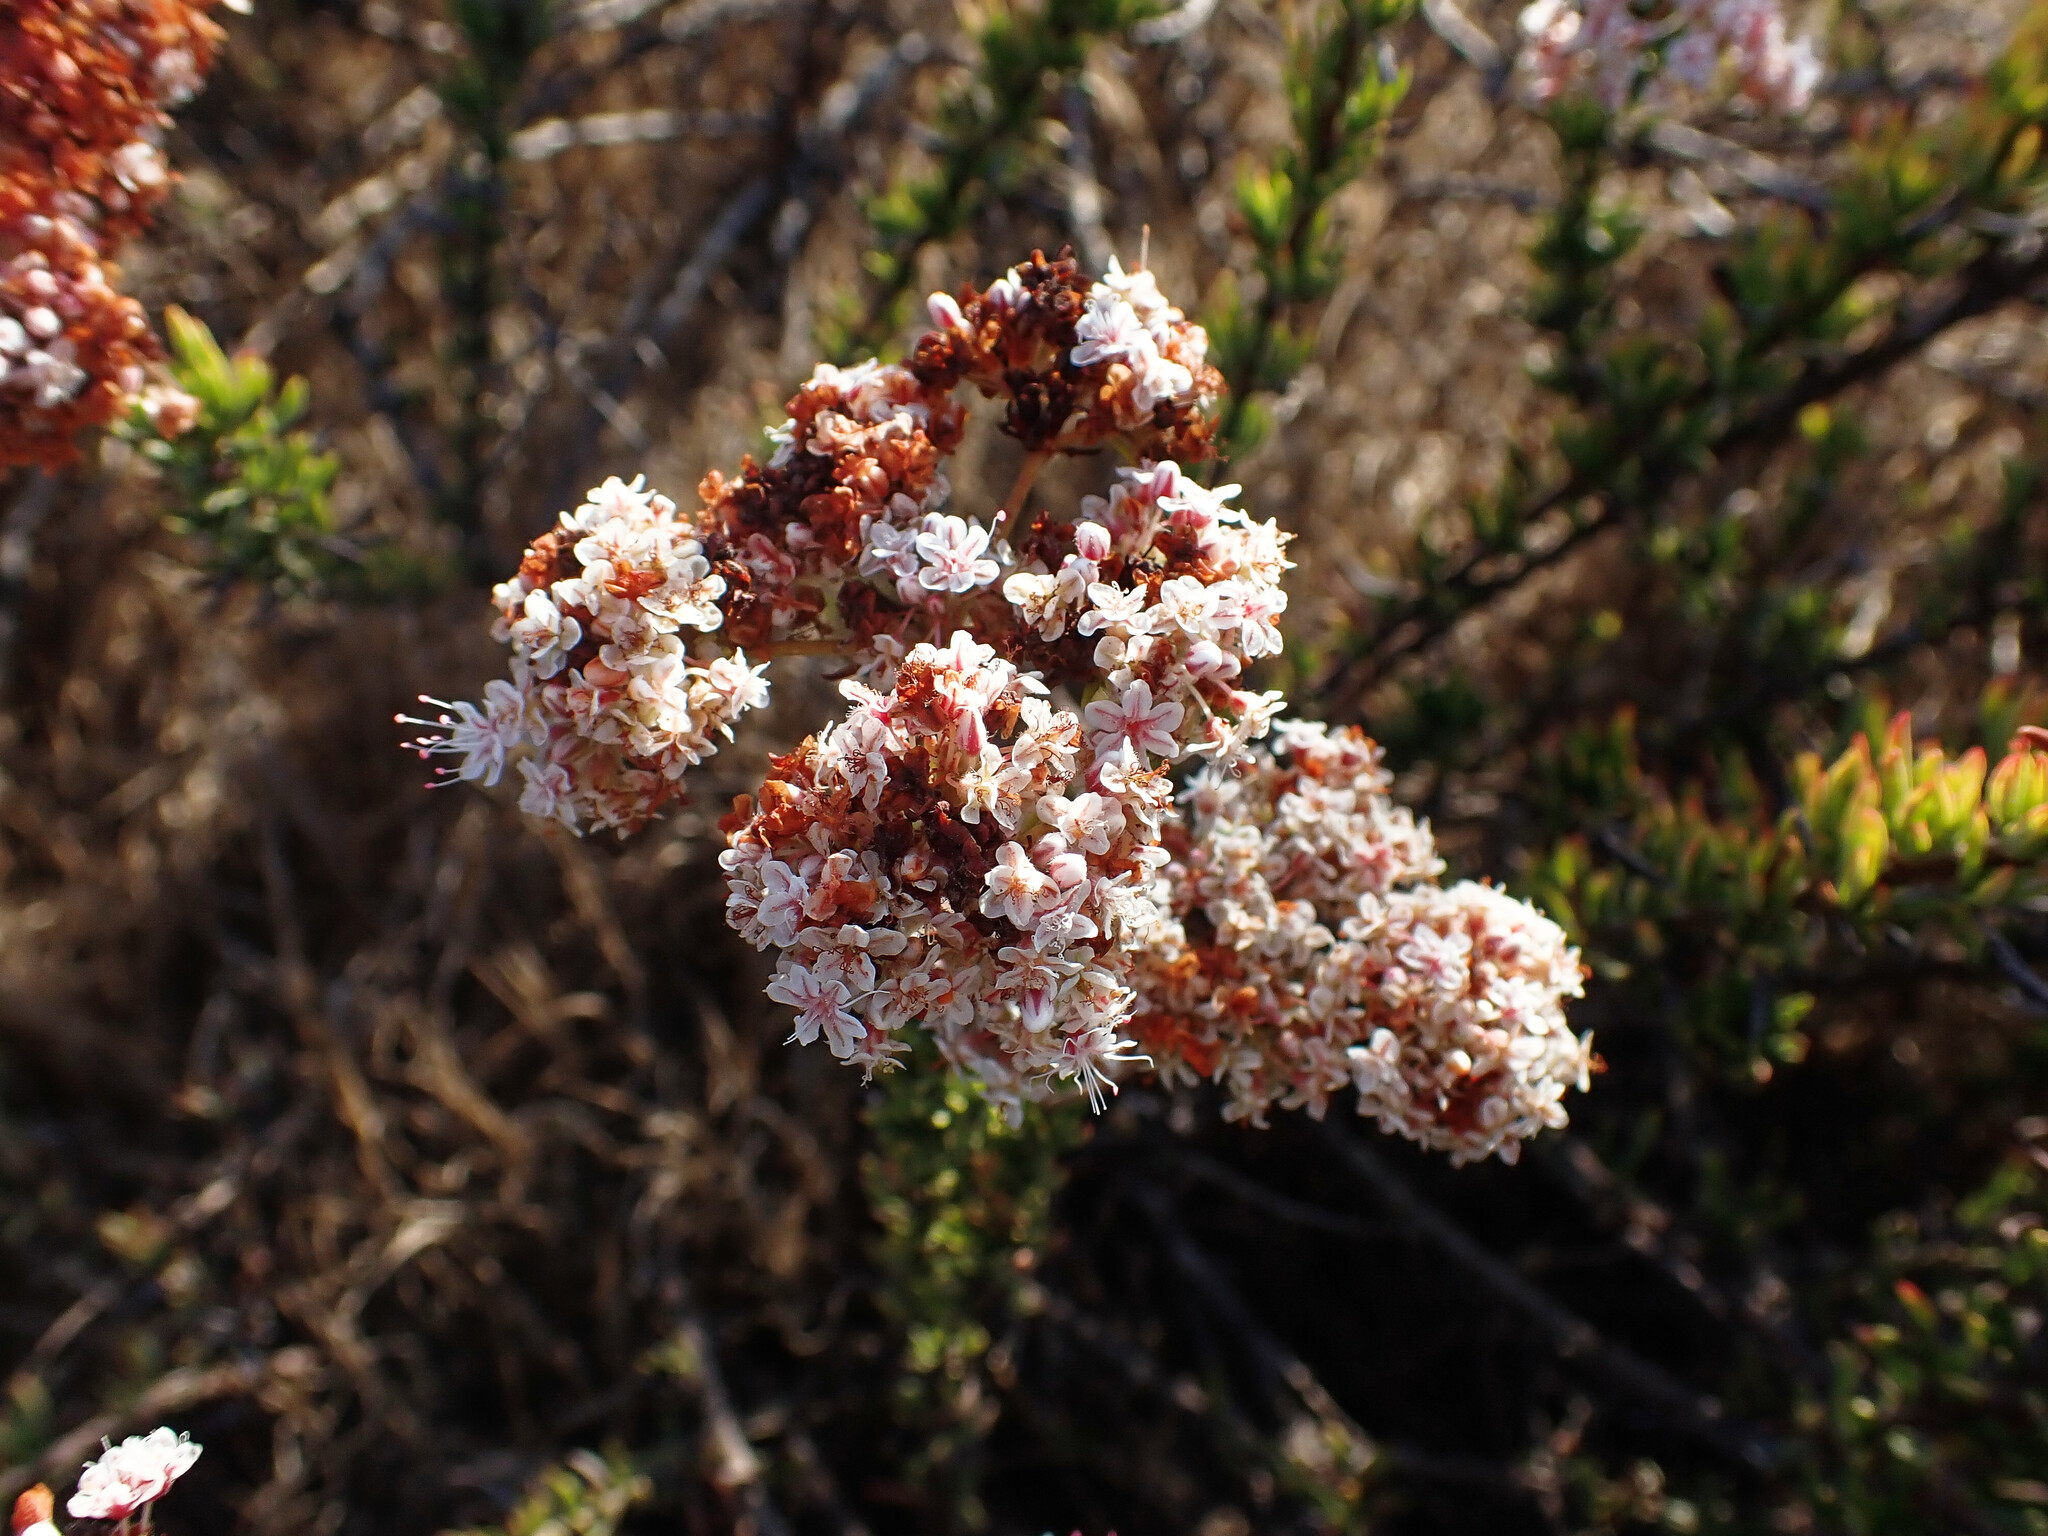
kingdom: Plantae
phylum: Tracheophyta
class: Magnoliopsida
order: Caryophyllales
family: Polygonaceae
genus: Eriogonum
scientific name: Eriogonum fasciculatum
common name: California wild buckwheat
